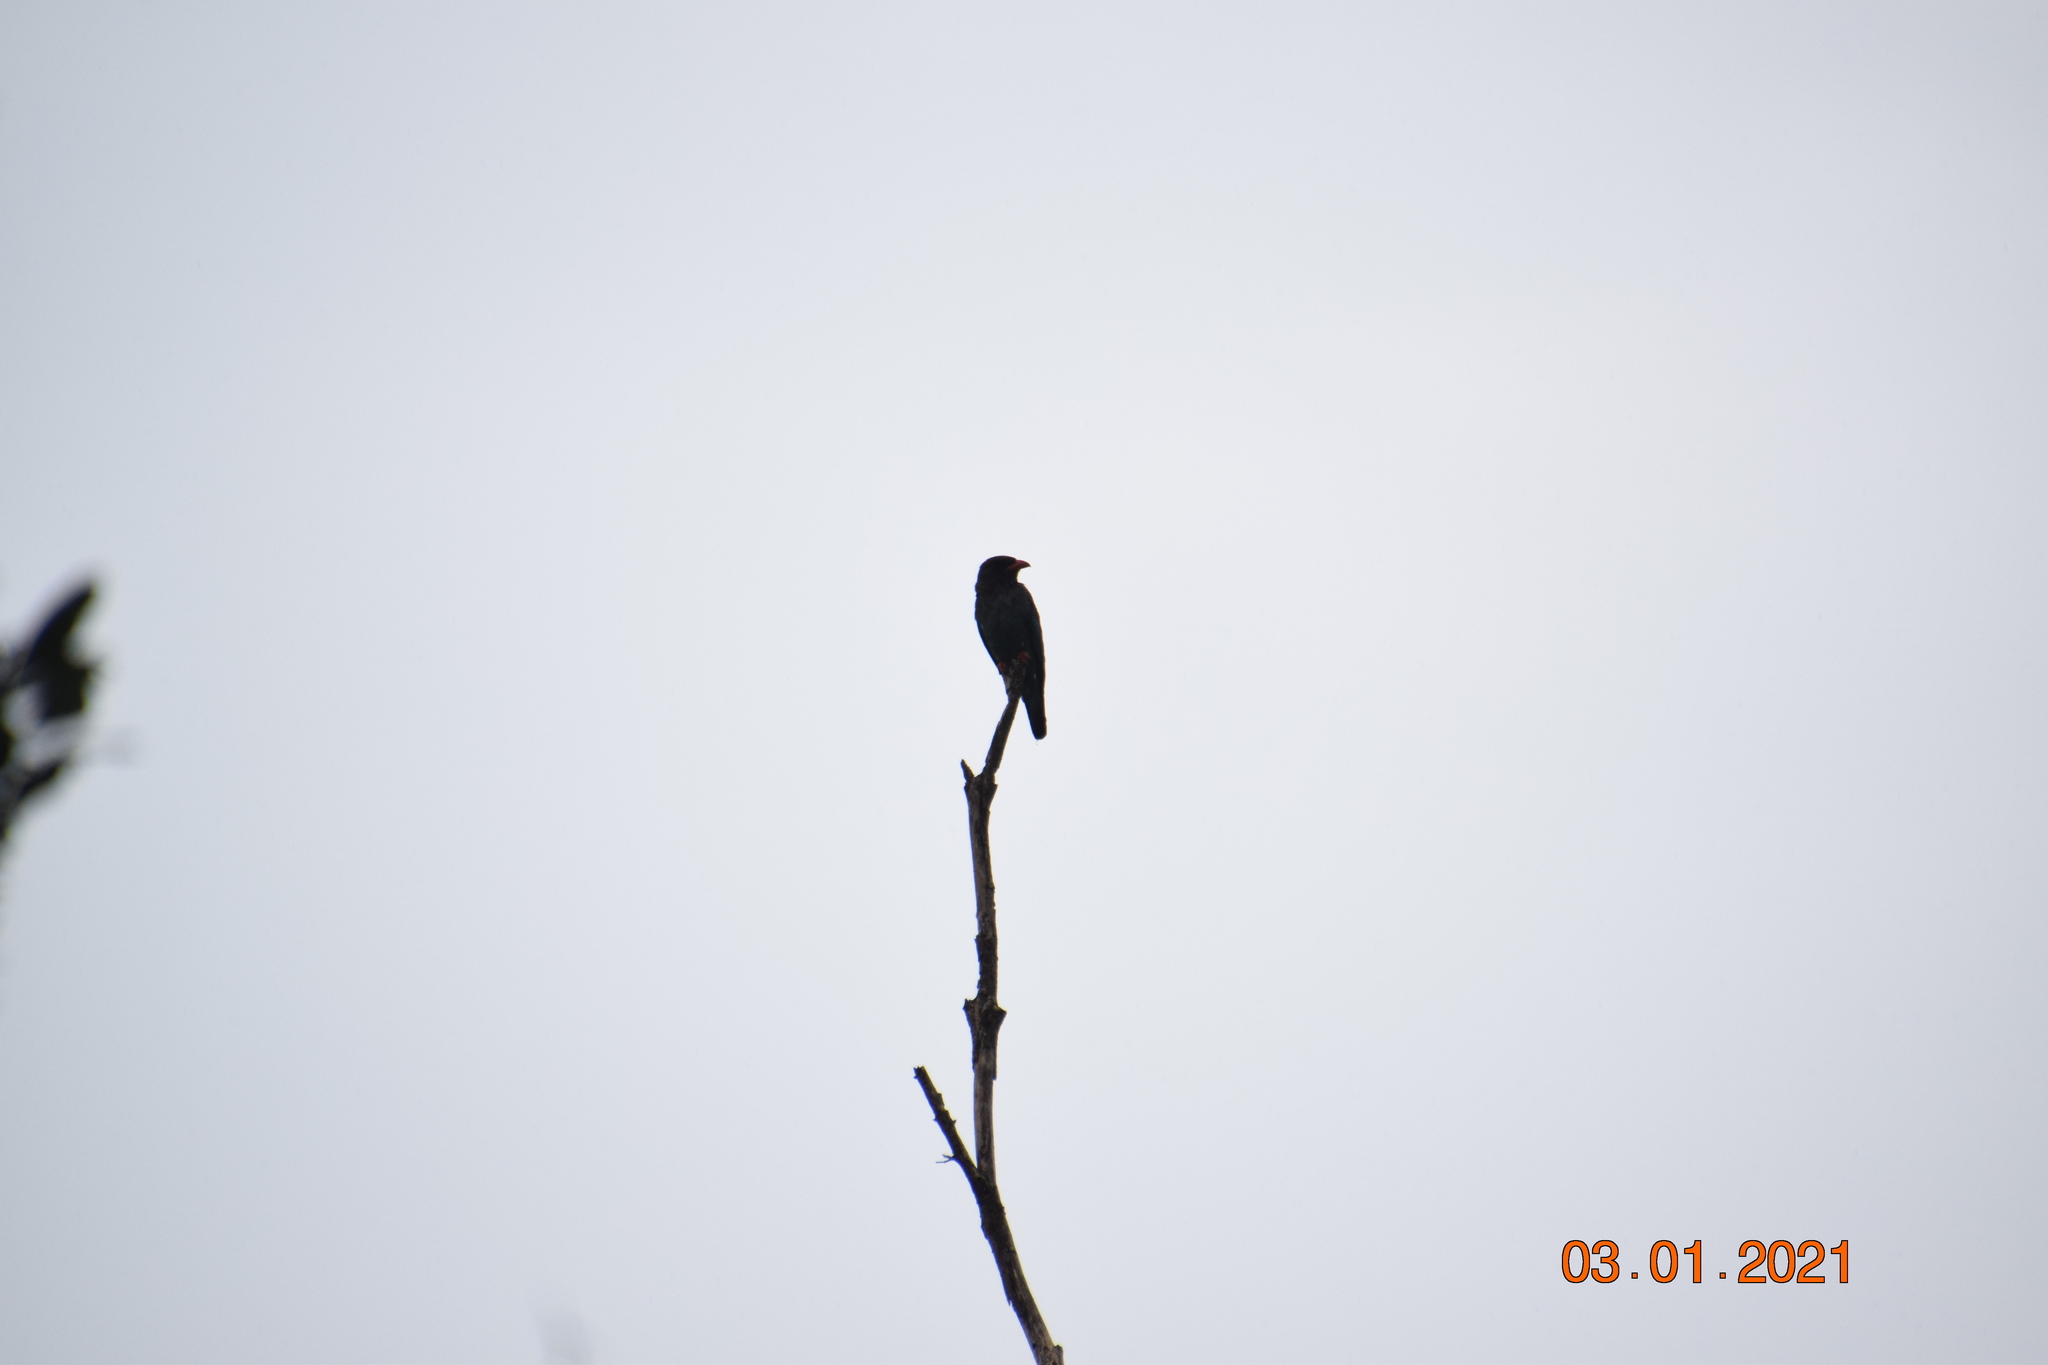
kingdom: Animalia
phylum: Chordata
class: Aves
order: Coraciiformes
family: Coraciidae
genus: Eurystomus
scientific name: Eurystomus orientalis
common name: Oriental dollarbird
